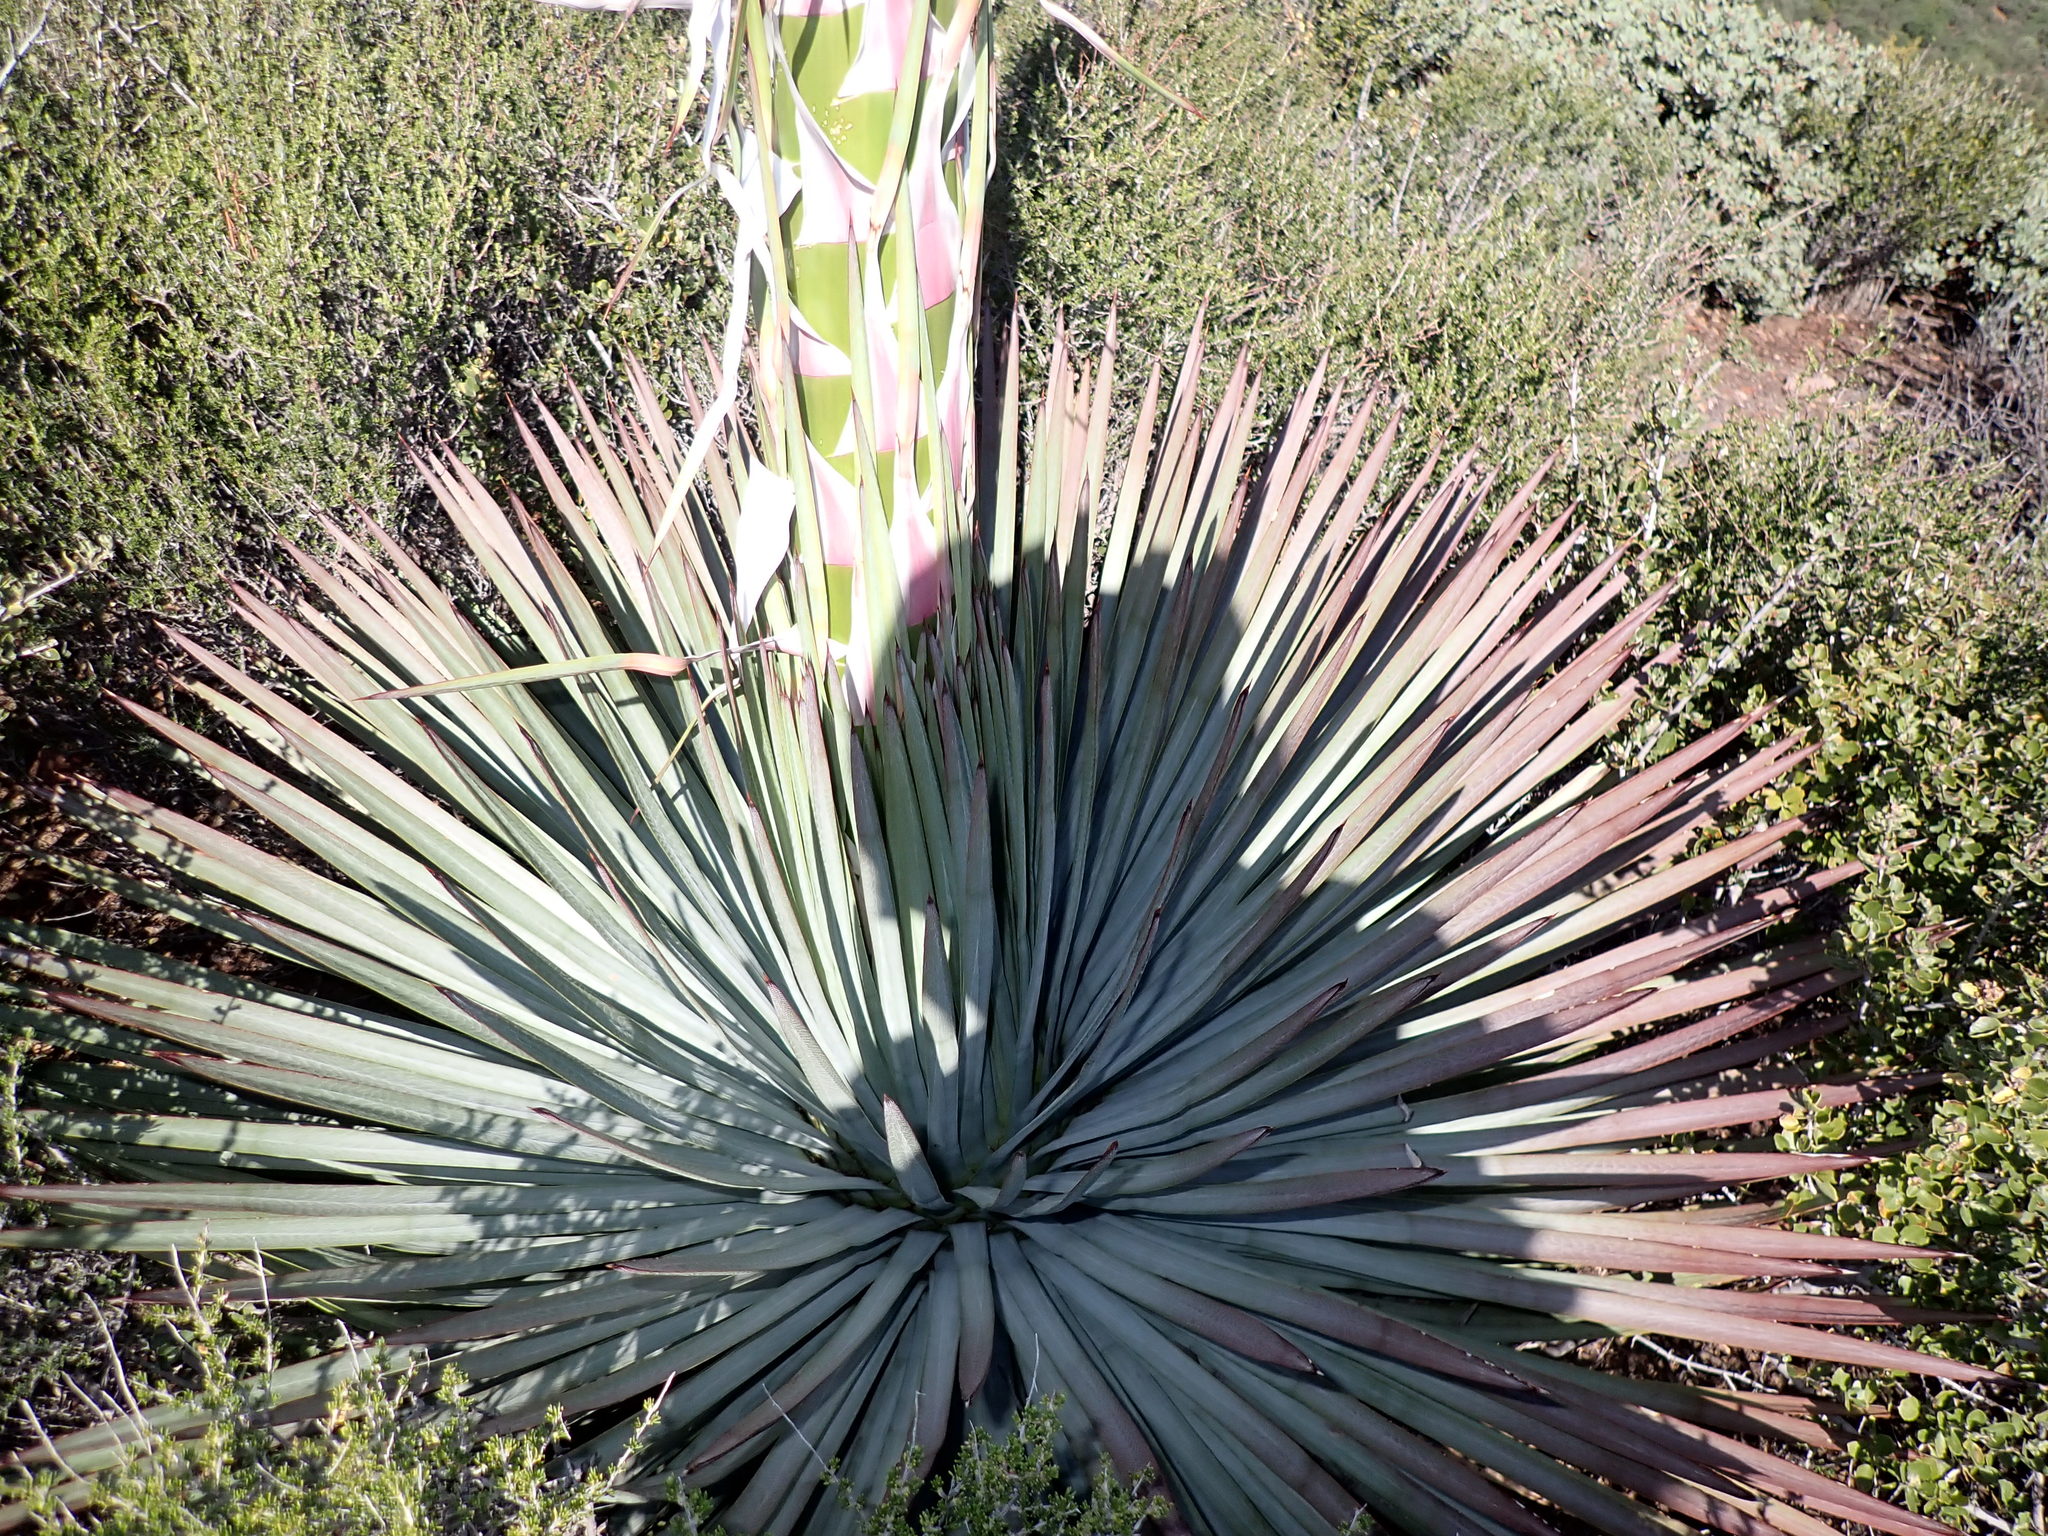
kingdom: Plantae
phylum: Tracheophyta
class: Liliopsida
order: Asparagales
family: Asparagaceae
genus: Hesperoyucca
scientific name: Hesperoyucca whipplei
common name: Our lord's-candle
